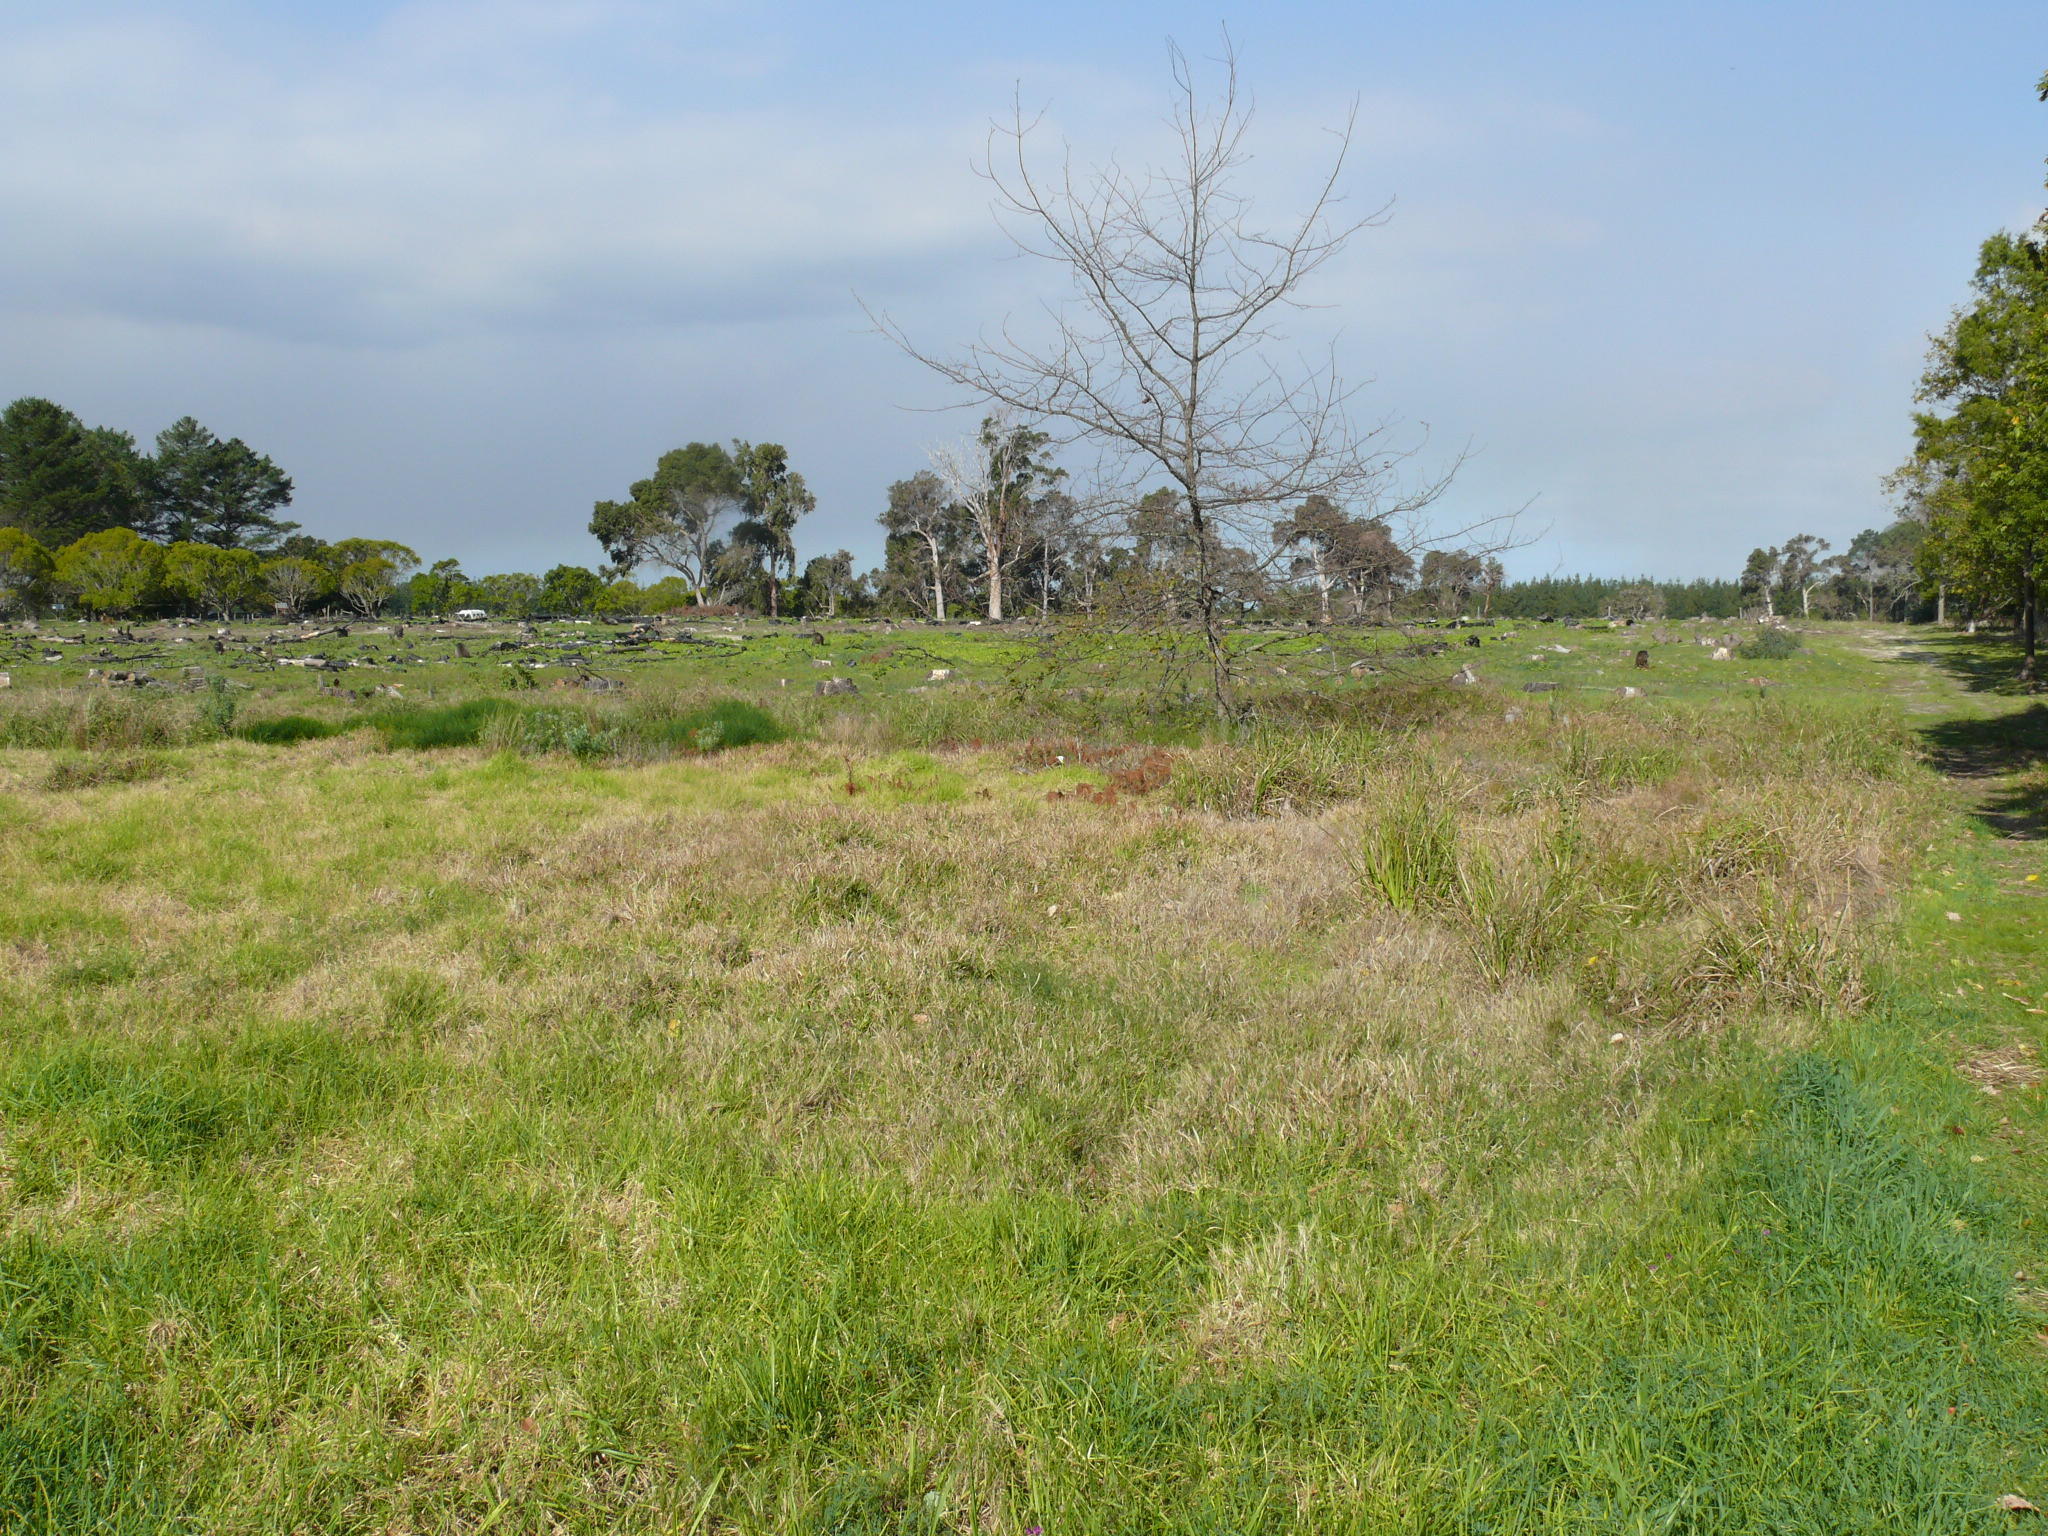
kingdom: Plantae
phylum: Tracheophyta
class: Liliopsida
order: Poales
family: Poaceae
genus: Stenotaphrum
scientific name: Stenotaphrum secundatum
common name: St. augustine grass
